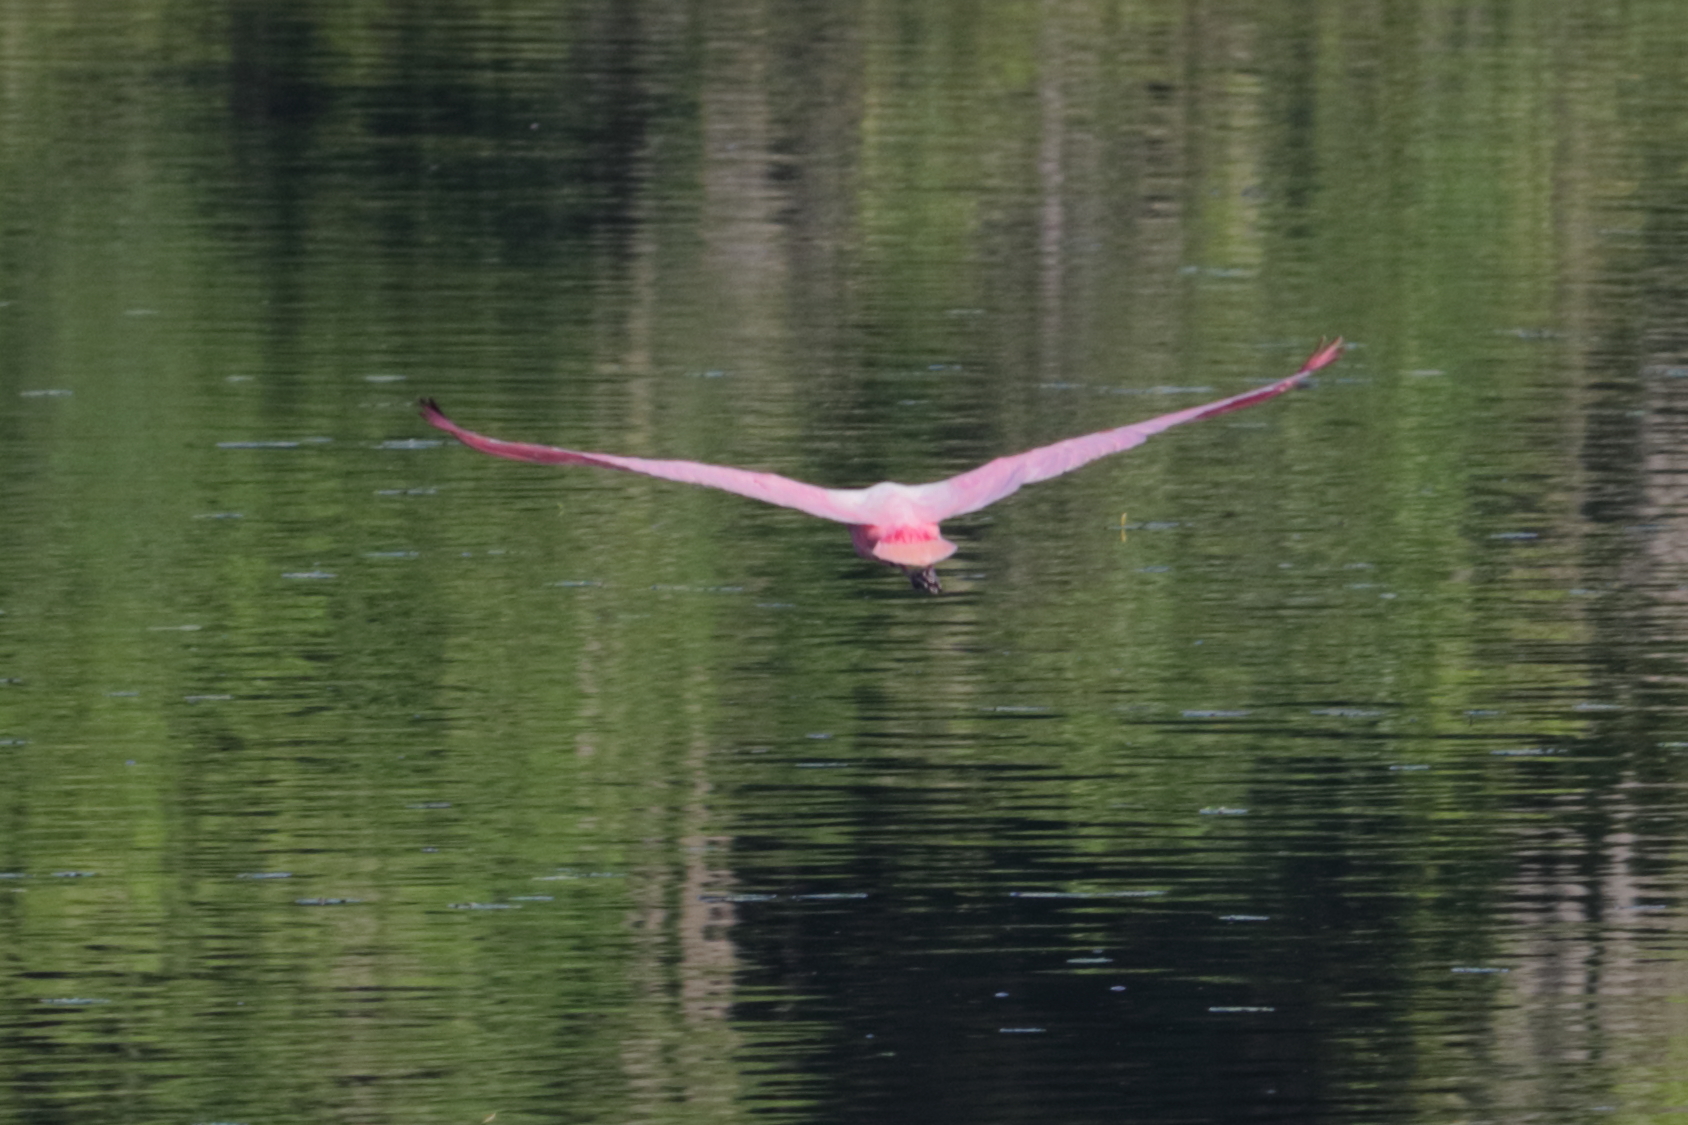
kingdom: Animalia
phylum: Chordata
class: Aves
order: Pelecaniformes
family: Threskiornithidae
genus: Platalea
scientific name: Platalea ajaja
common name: Roseate spoonbill
